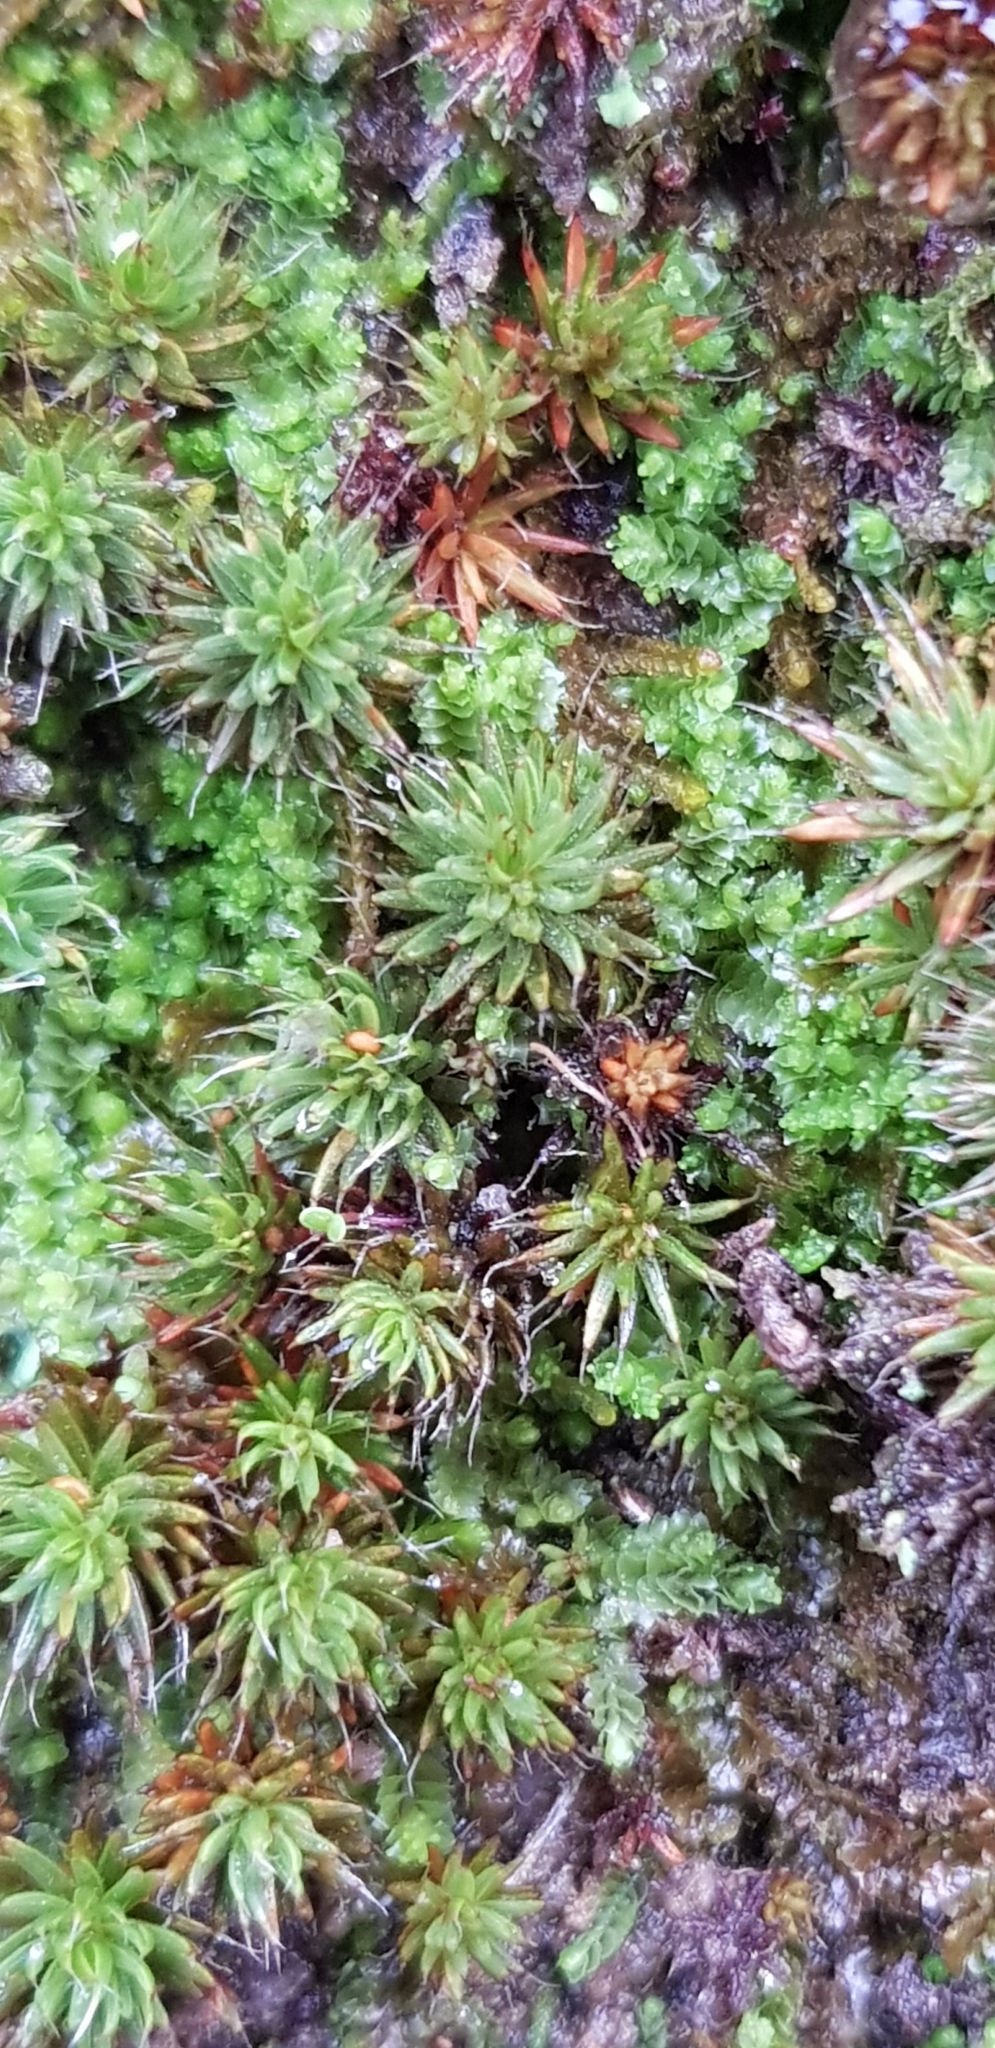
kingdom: Plantae
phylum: Bryophyta
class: Polytrichopsida
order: Polytrichales
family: Polytrichaceae
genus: Polytrichum
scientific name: Polytrichum piliferum
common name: Bristly haircap
